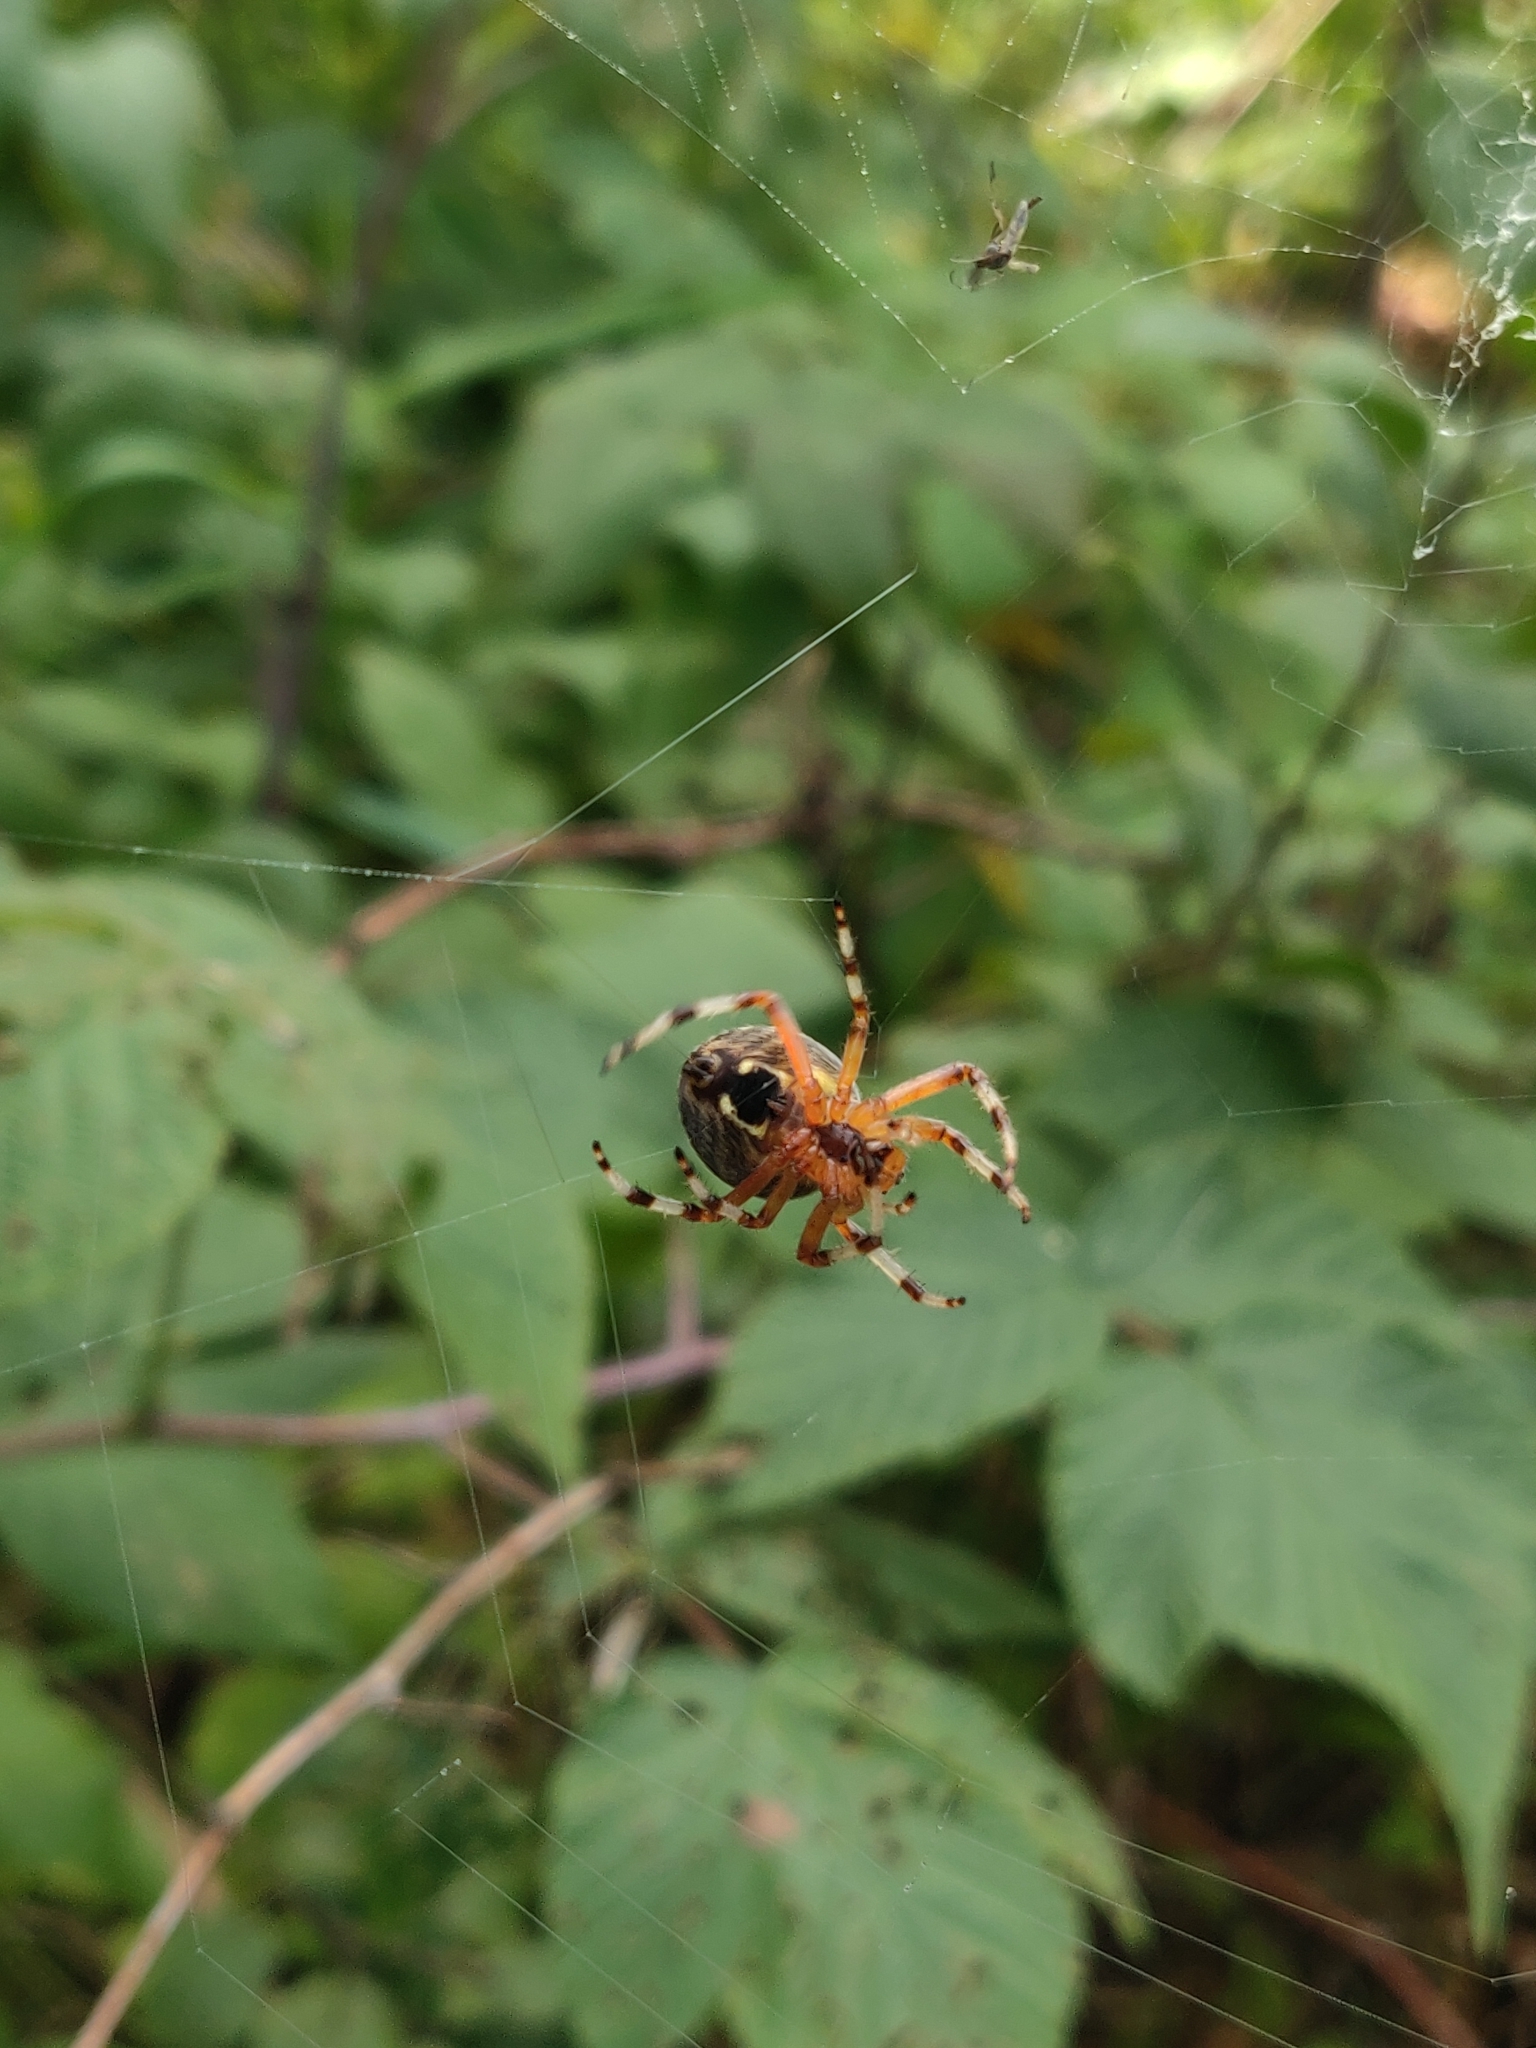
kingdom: Animalia
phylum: Arthropoda
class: Arachnida
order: Araneae
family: Araneidae
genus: Araneus
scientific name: Araneus marmoreus
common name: Marbled orbweaver
